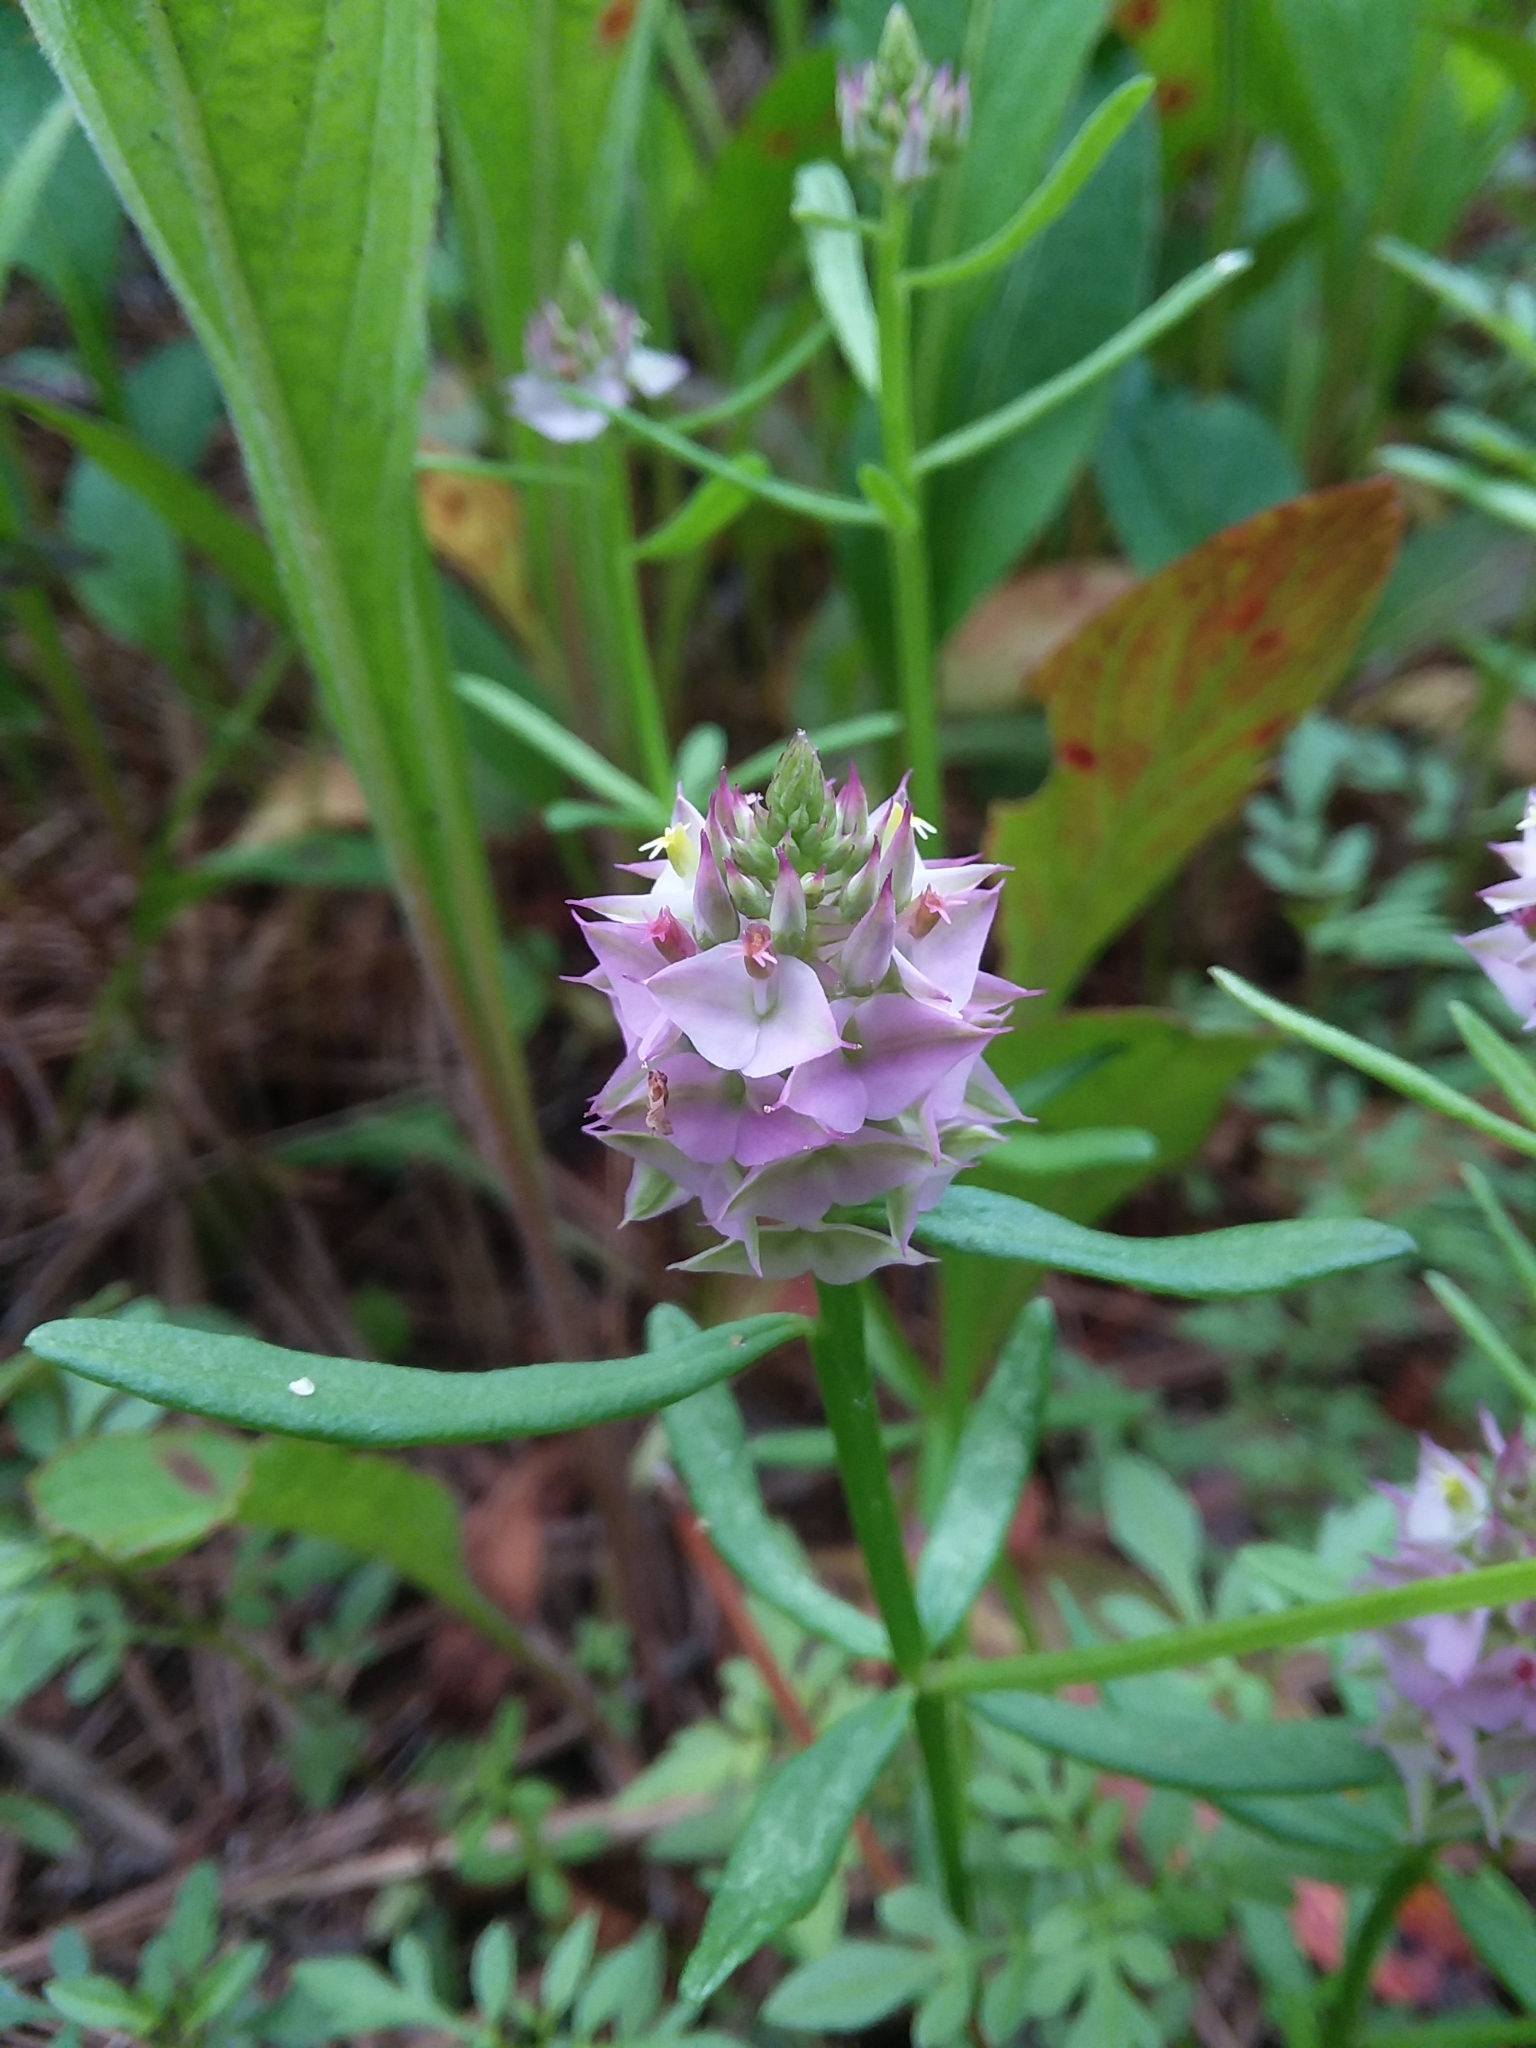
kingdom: Plantae
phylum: Tracheophyta
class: Magnoliopsida
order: Fabales
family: Polygalaceae
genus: Polygala
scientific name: Polygala cruciata
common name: Drumheads
